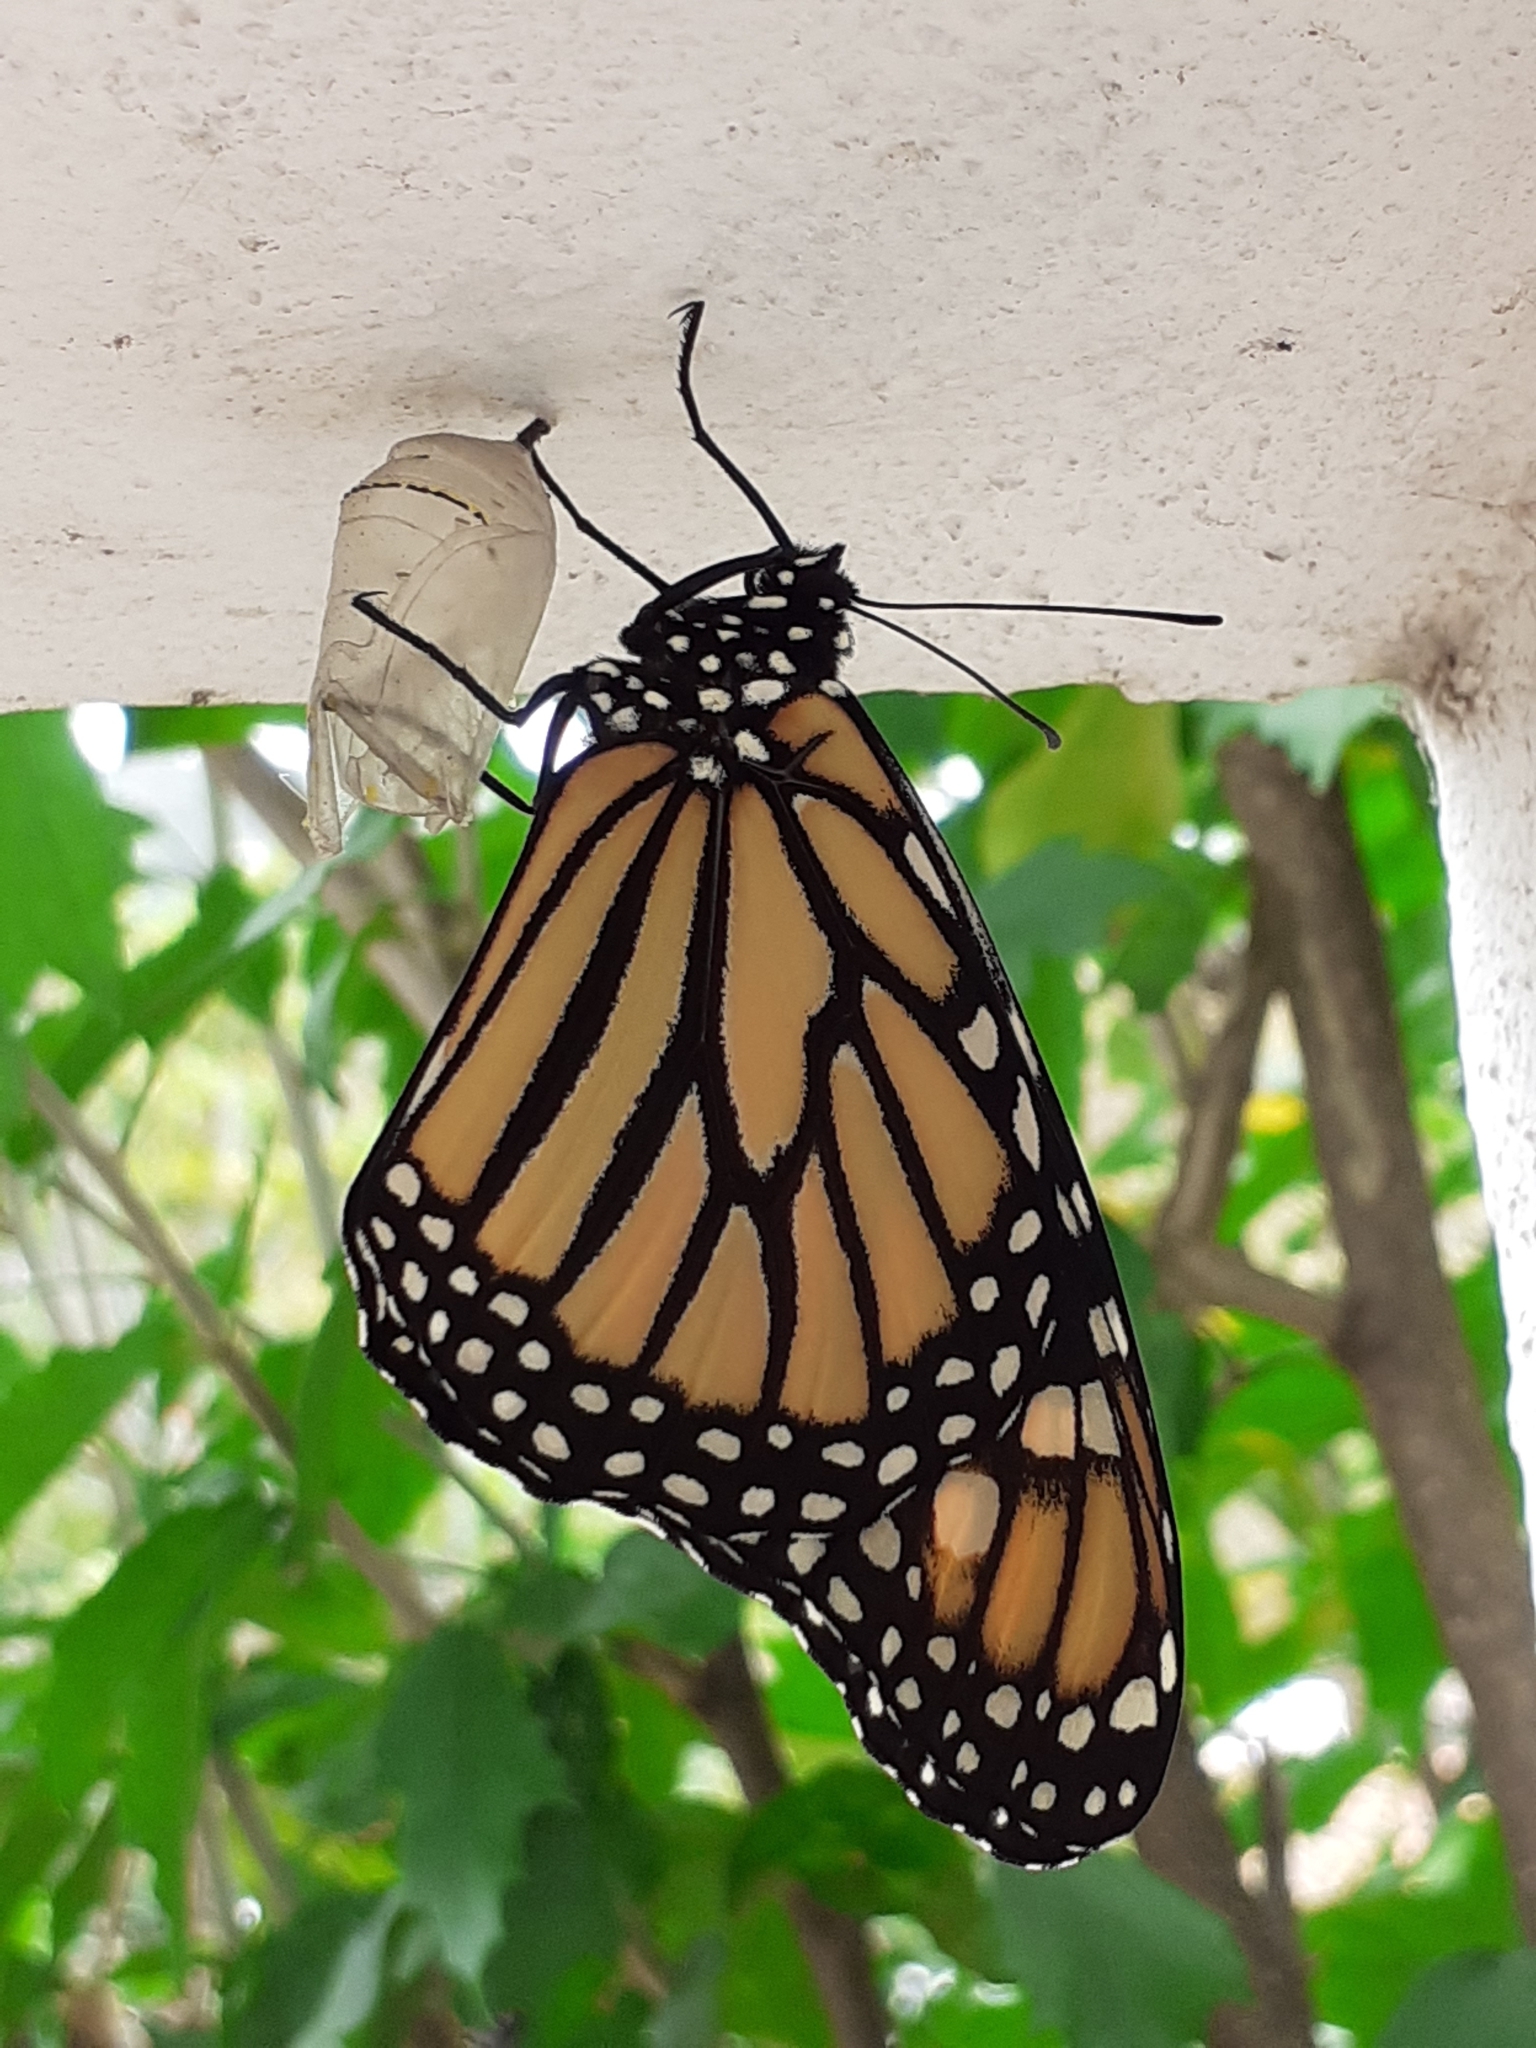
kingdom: Animalia
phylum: Arthropoda
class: Insecta
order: Lepidoptera
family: Nymphalidae
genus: Danaus
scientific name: Danaus plexippus
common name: Monarch
